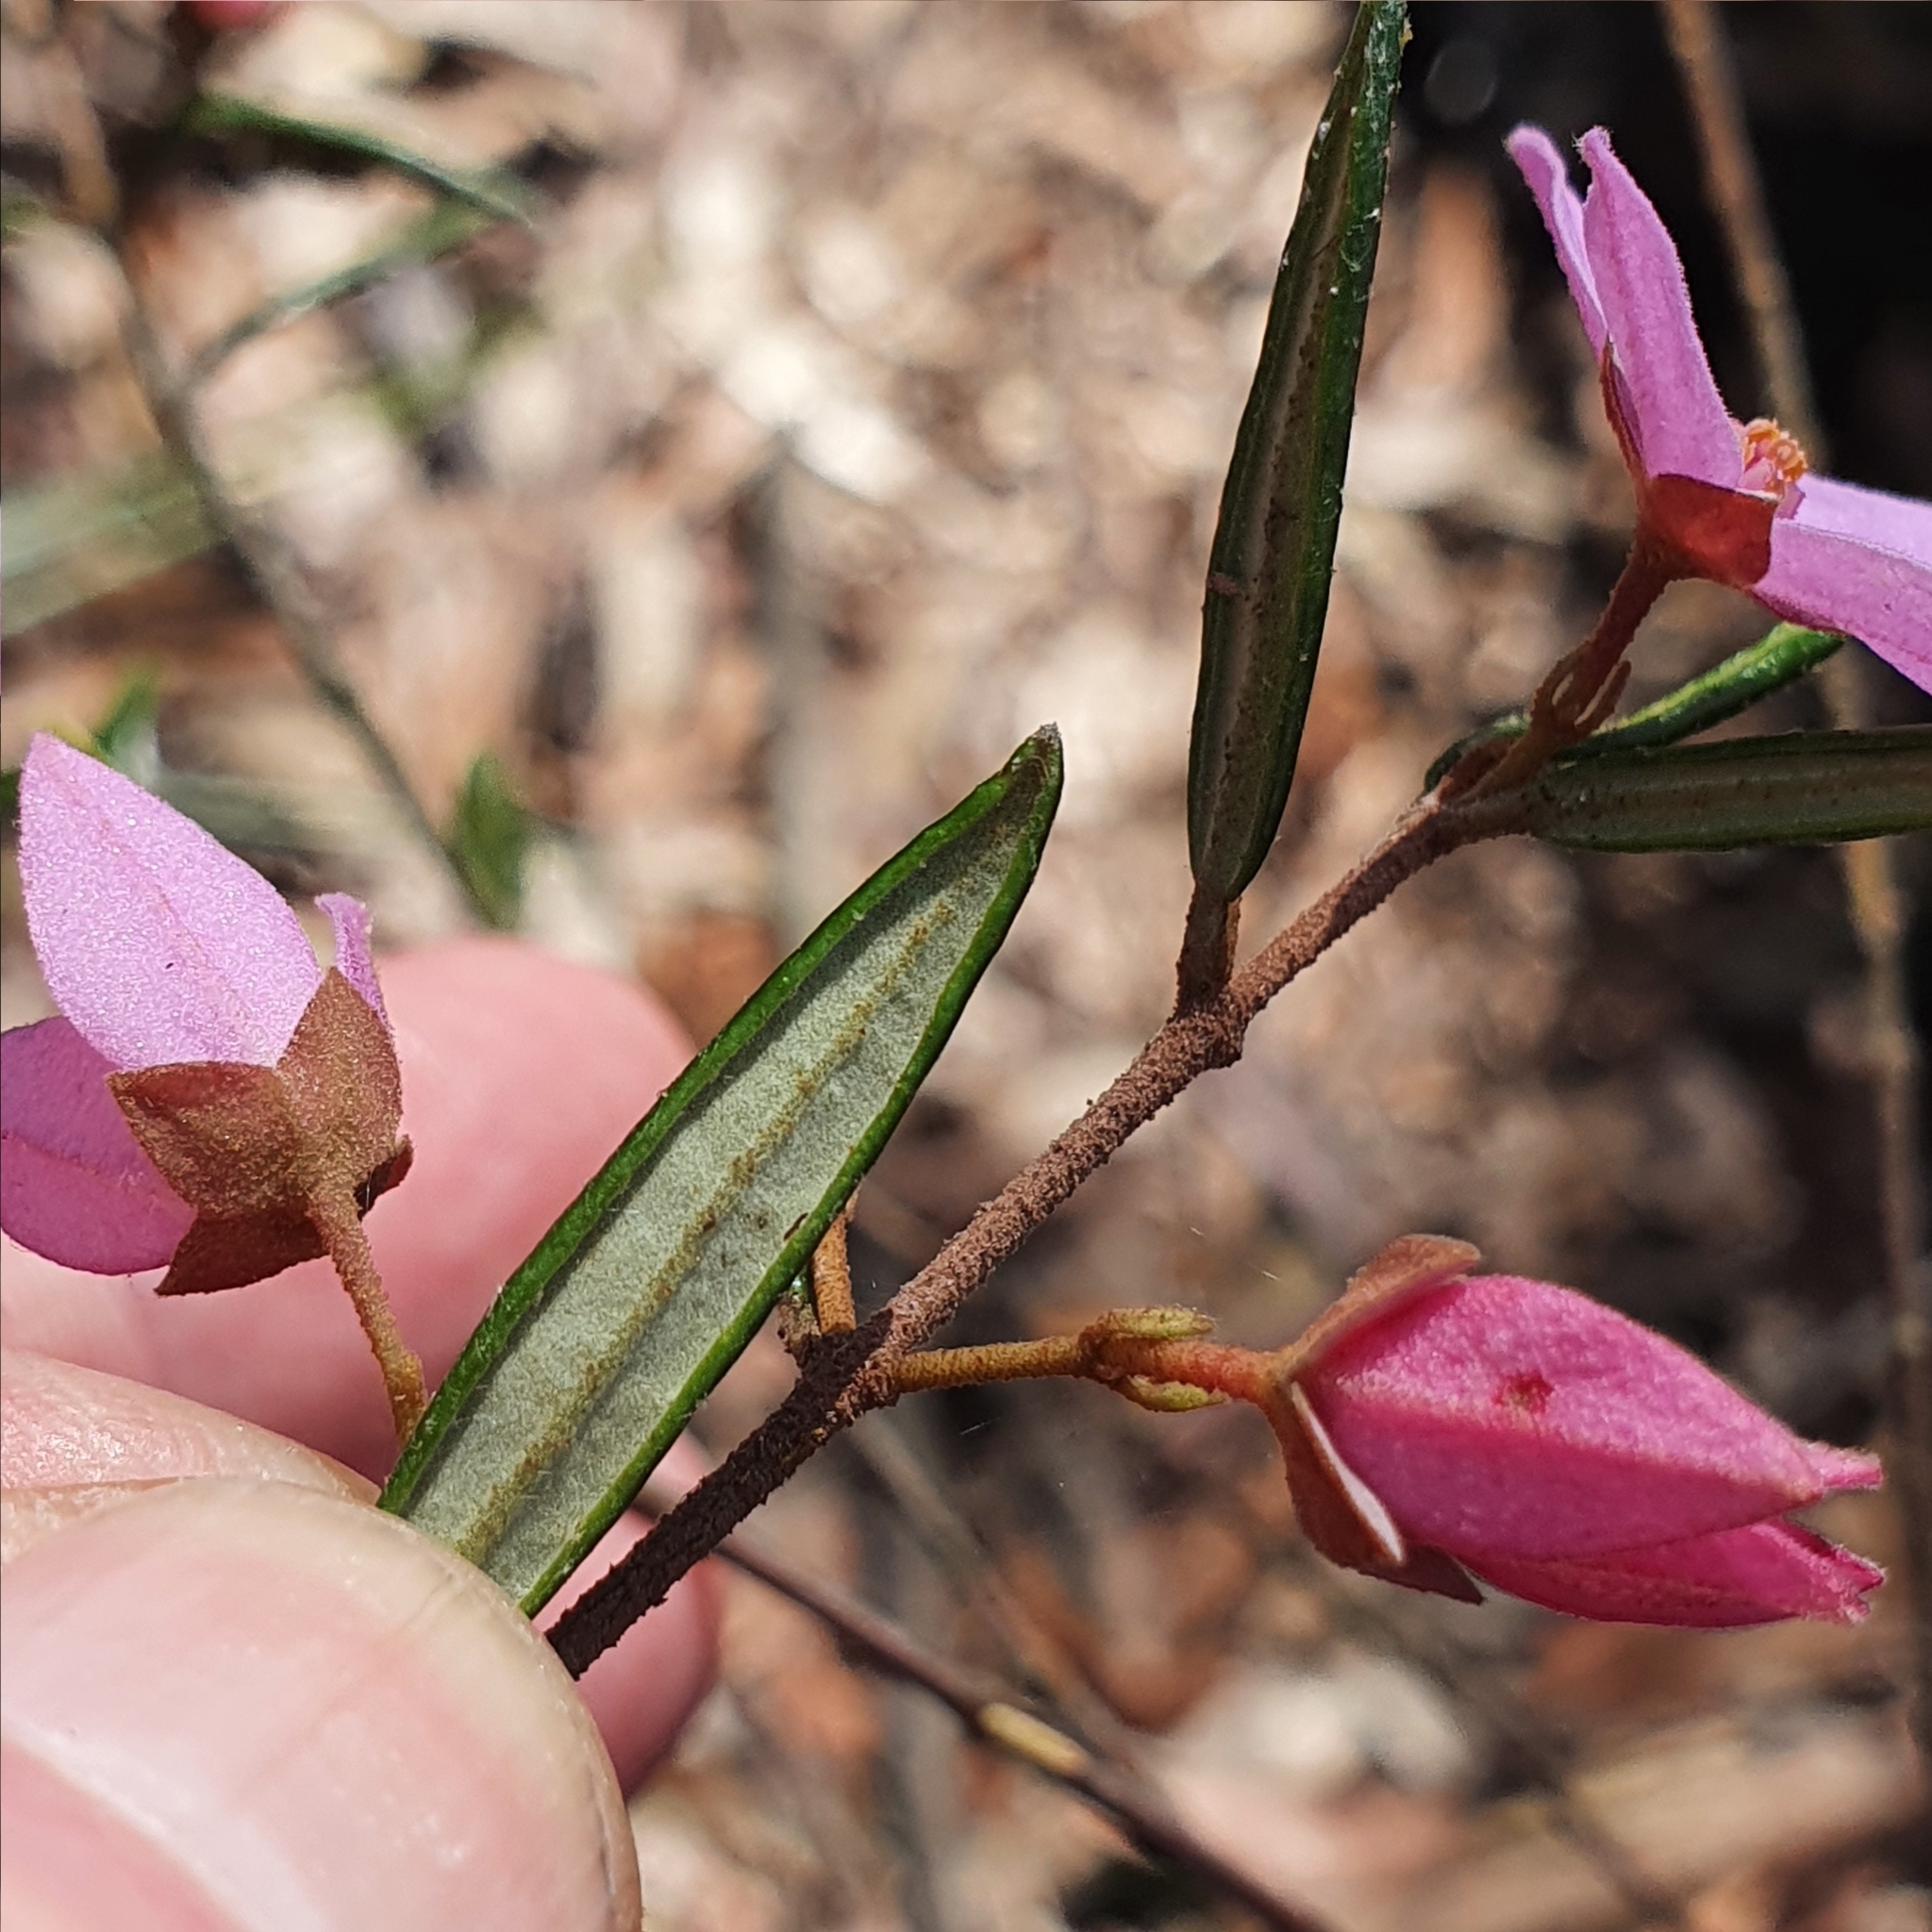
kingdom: Plantae
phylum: Tracheophyta
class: Magnoliopsida
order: Sapindales
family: Rutaceae
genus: Boronia
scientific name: Boronia ledifolia
